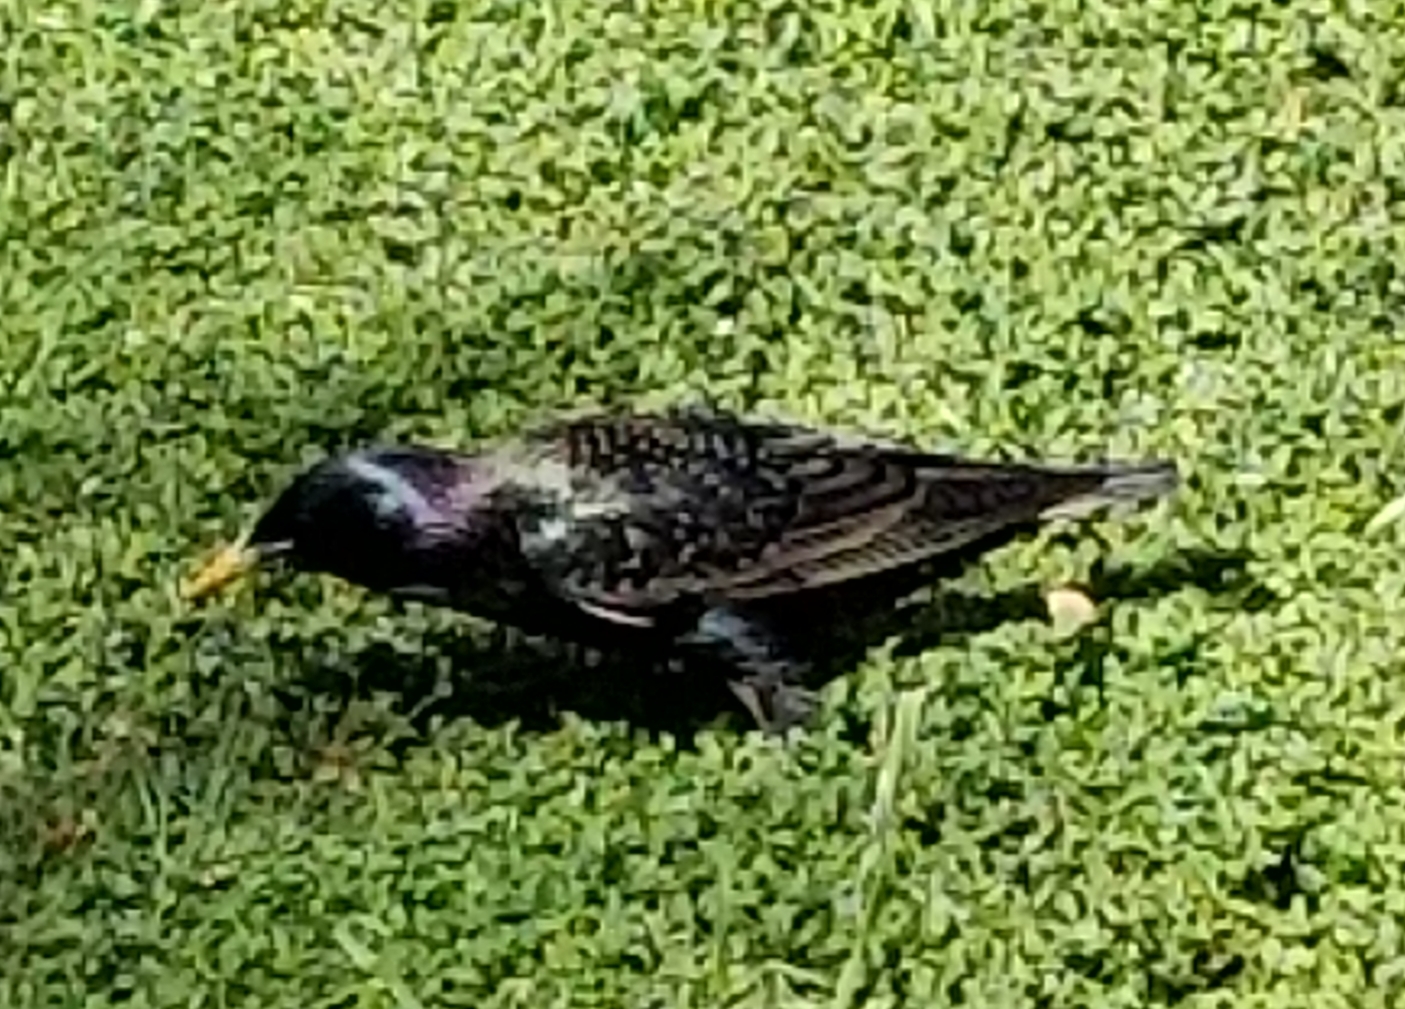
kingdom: Animalia
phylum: Chordata
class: Aves
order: Passeriformes
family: Sturnidae
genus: Sturnus
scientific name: Sturnus vulgaris
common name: Common starling
